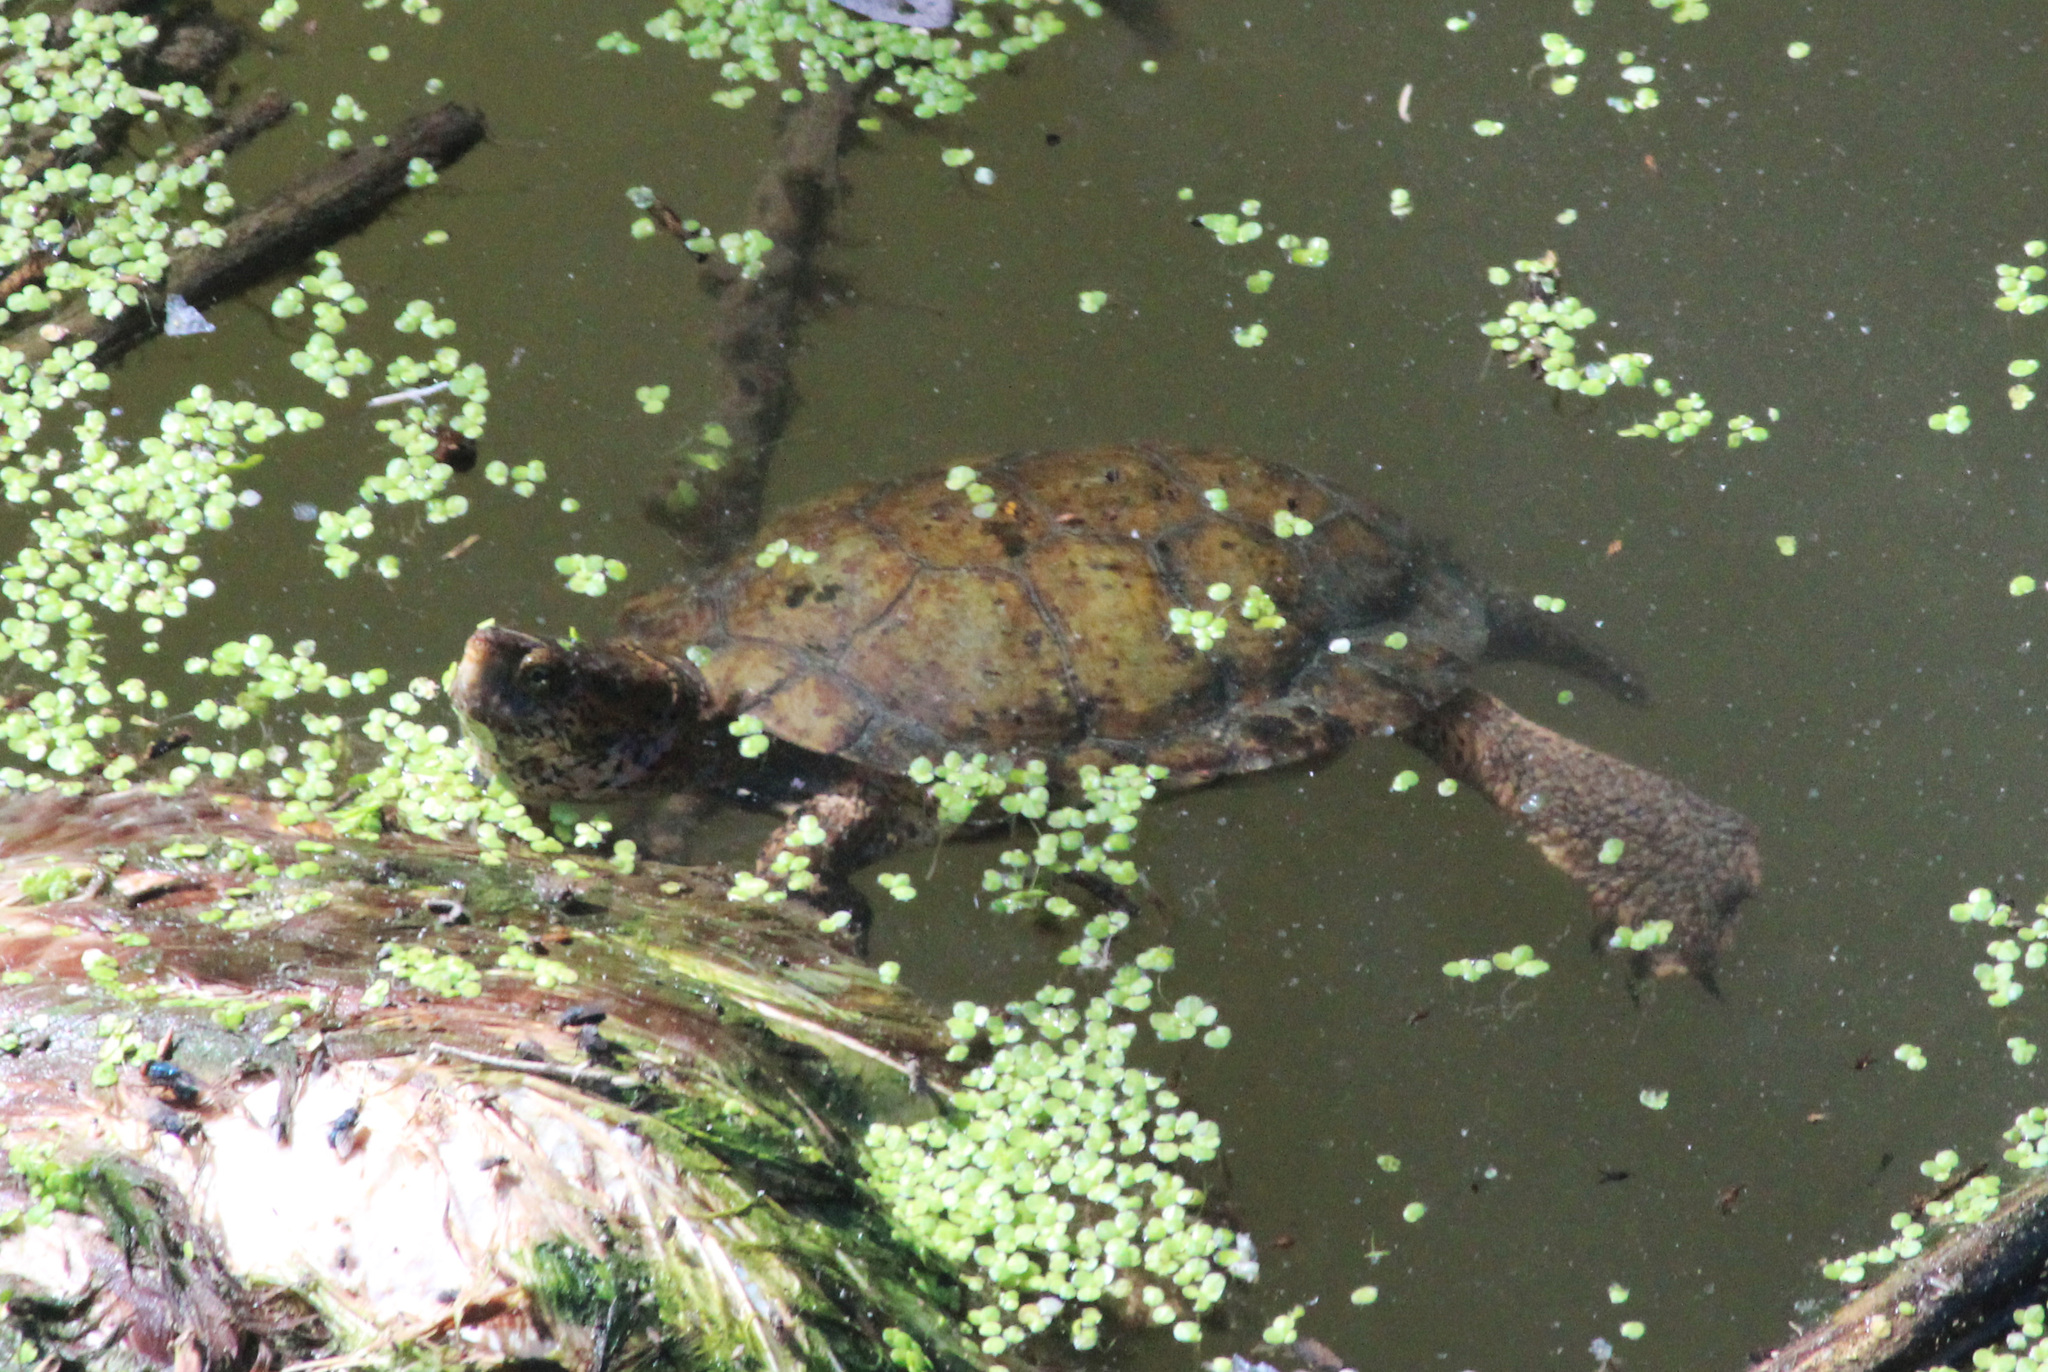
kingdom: Animalia
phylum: Chordata
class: Testudines
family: Emydidae
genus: Actinemys
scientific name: Actinemys marmorata
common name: Western pond turtle
